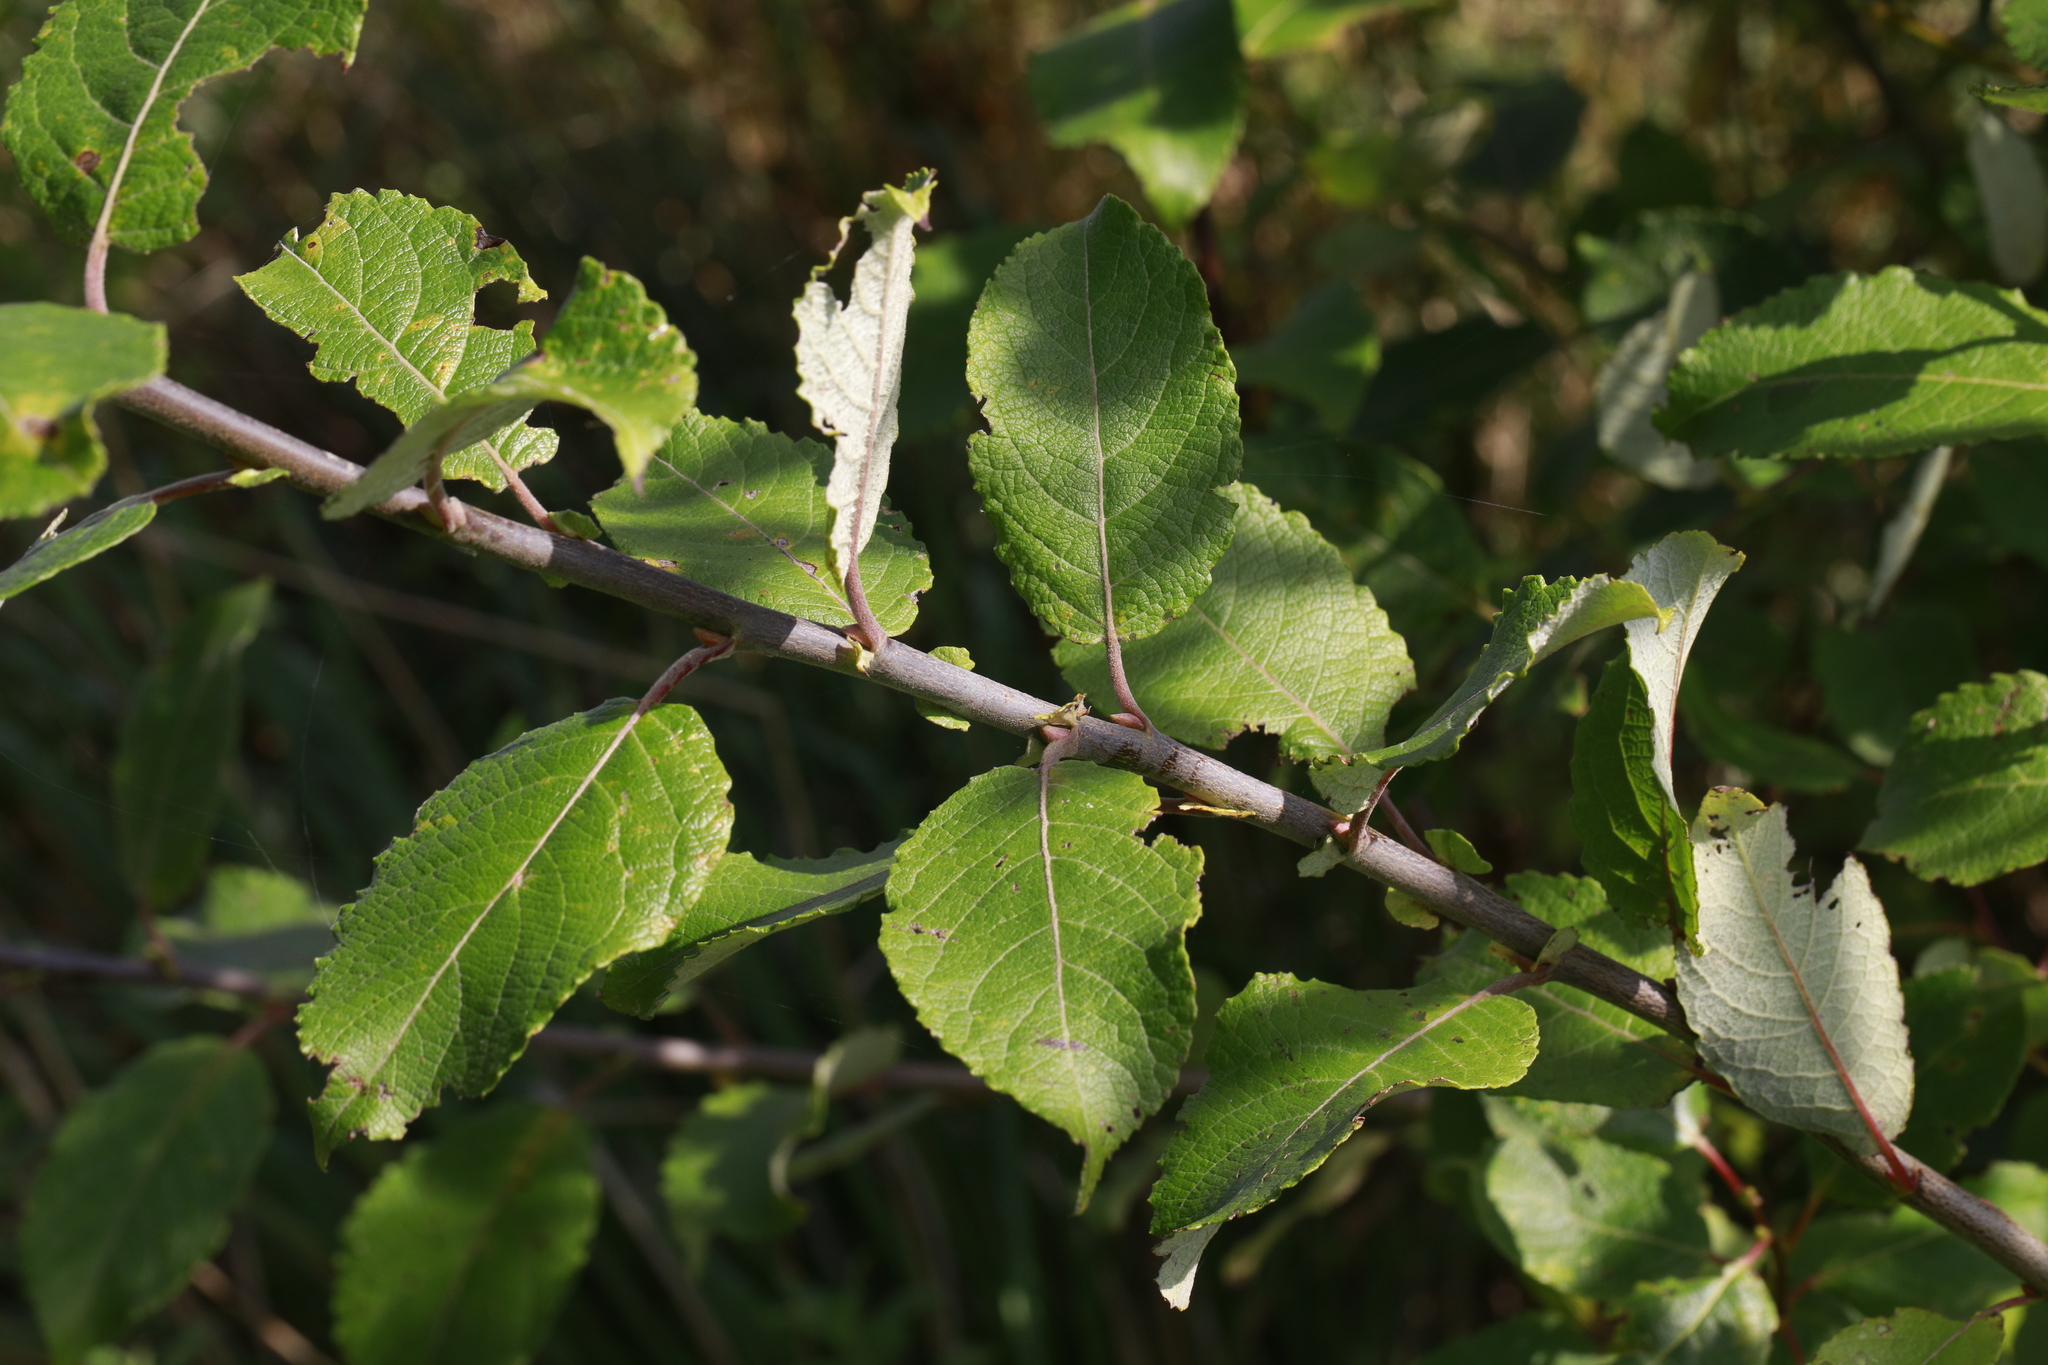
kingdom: Plantae
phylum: Tracheophyta
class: Magnoliopsida
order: Malpighiales
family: Salicaceae
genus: Salix
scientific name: Salix caprea
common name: Goat willow
